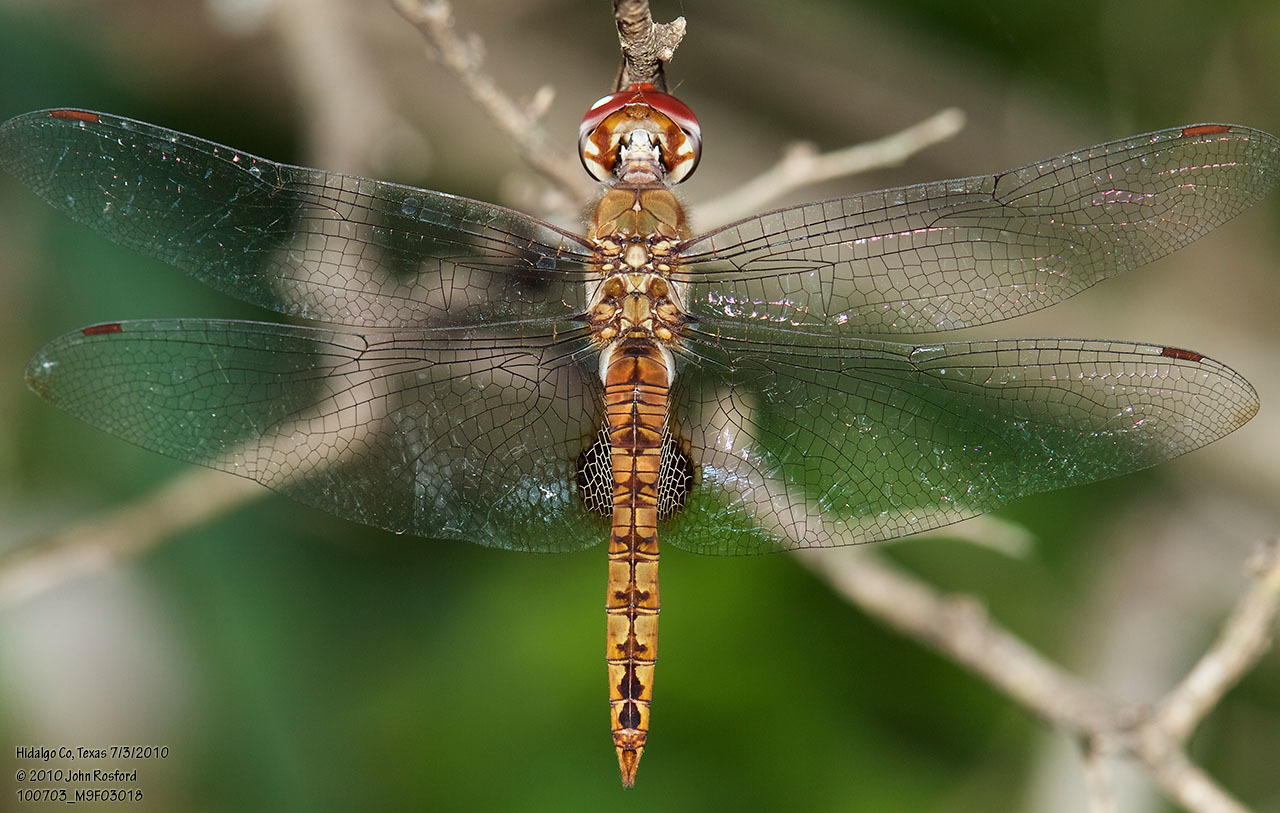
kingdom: Animalia
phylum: Arthropoda
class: Insecta
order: Odonata
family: Libellulidae
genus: Pantala
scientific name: Pantala hymenaea
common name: Spot-winged glider
